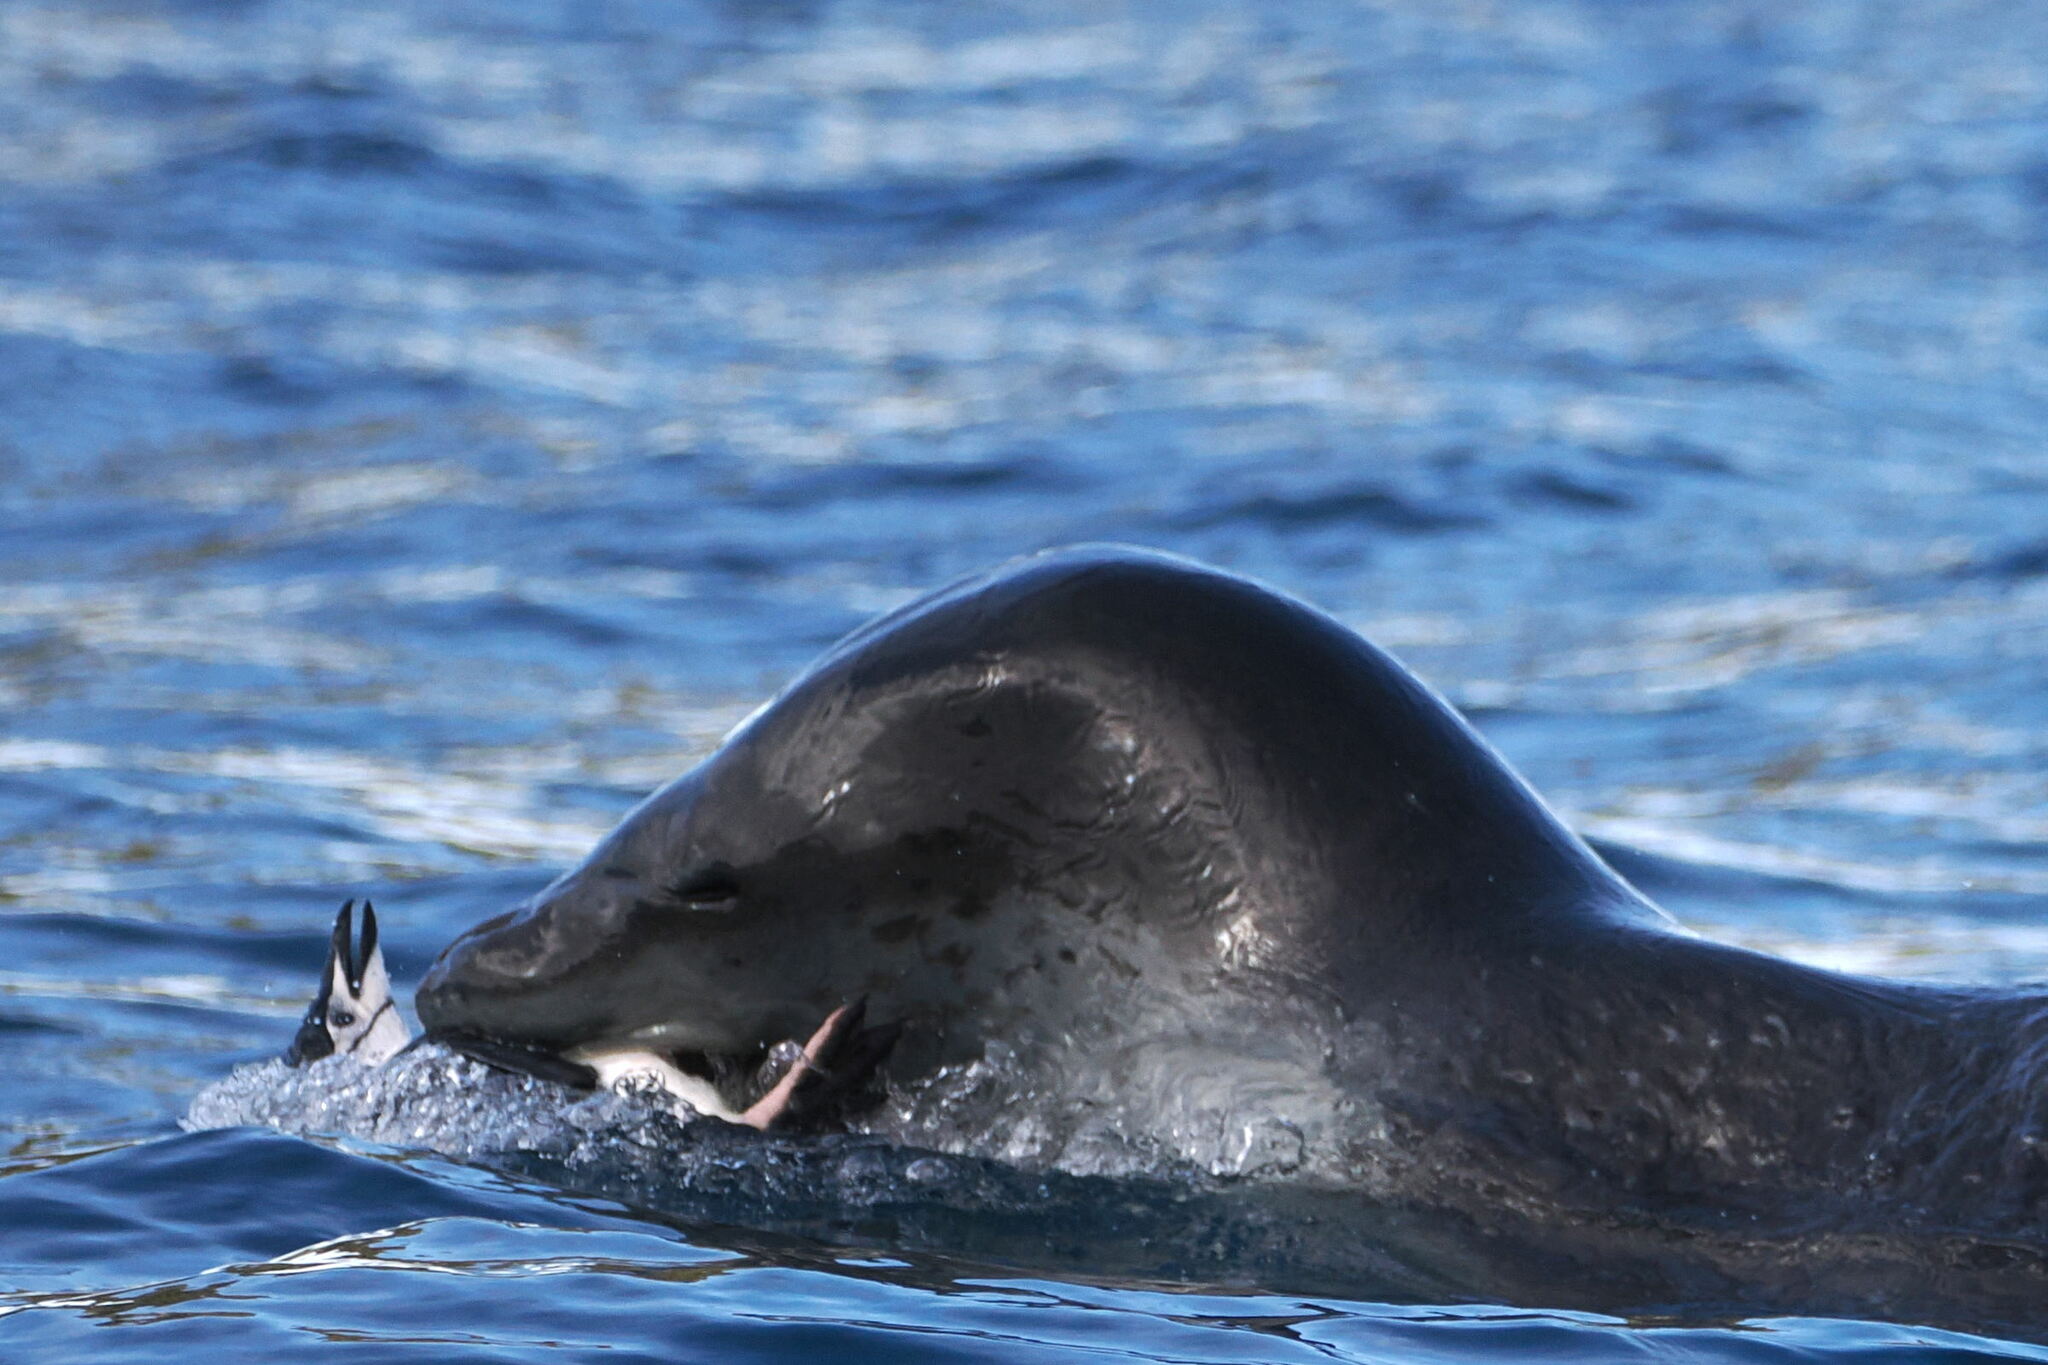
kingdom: Animalia
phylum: Chordata
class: Mammalia
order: Carnivora
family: Phocidae
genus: Hydrurga
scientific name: Hydrurga leptonyx
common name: Leopard seal
